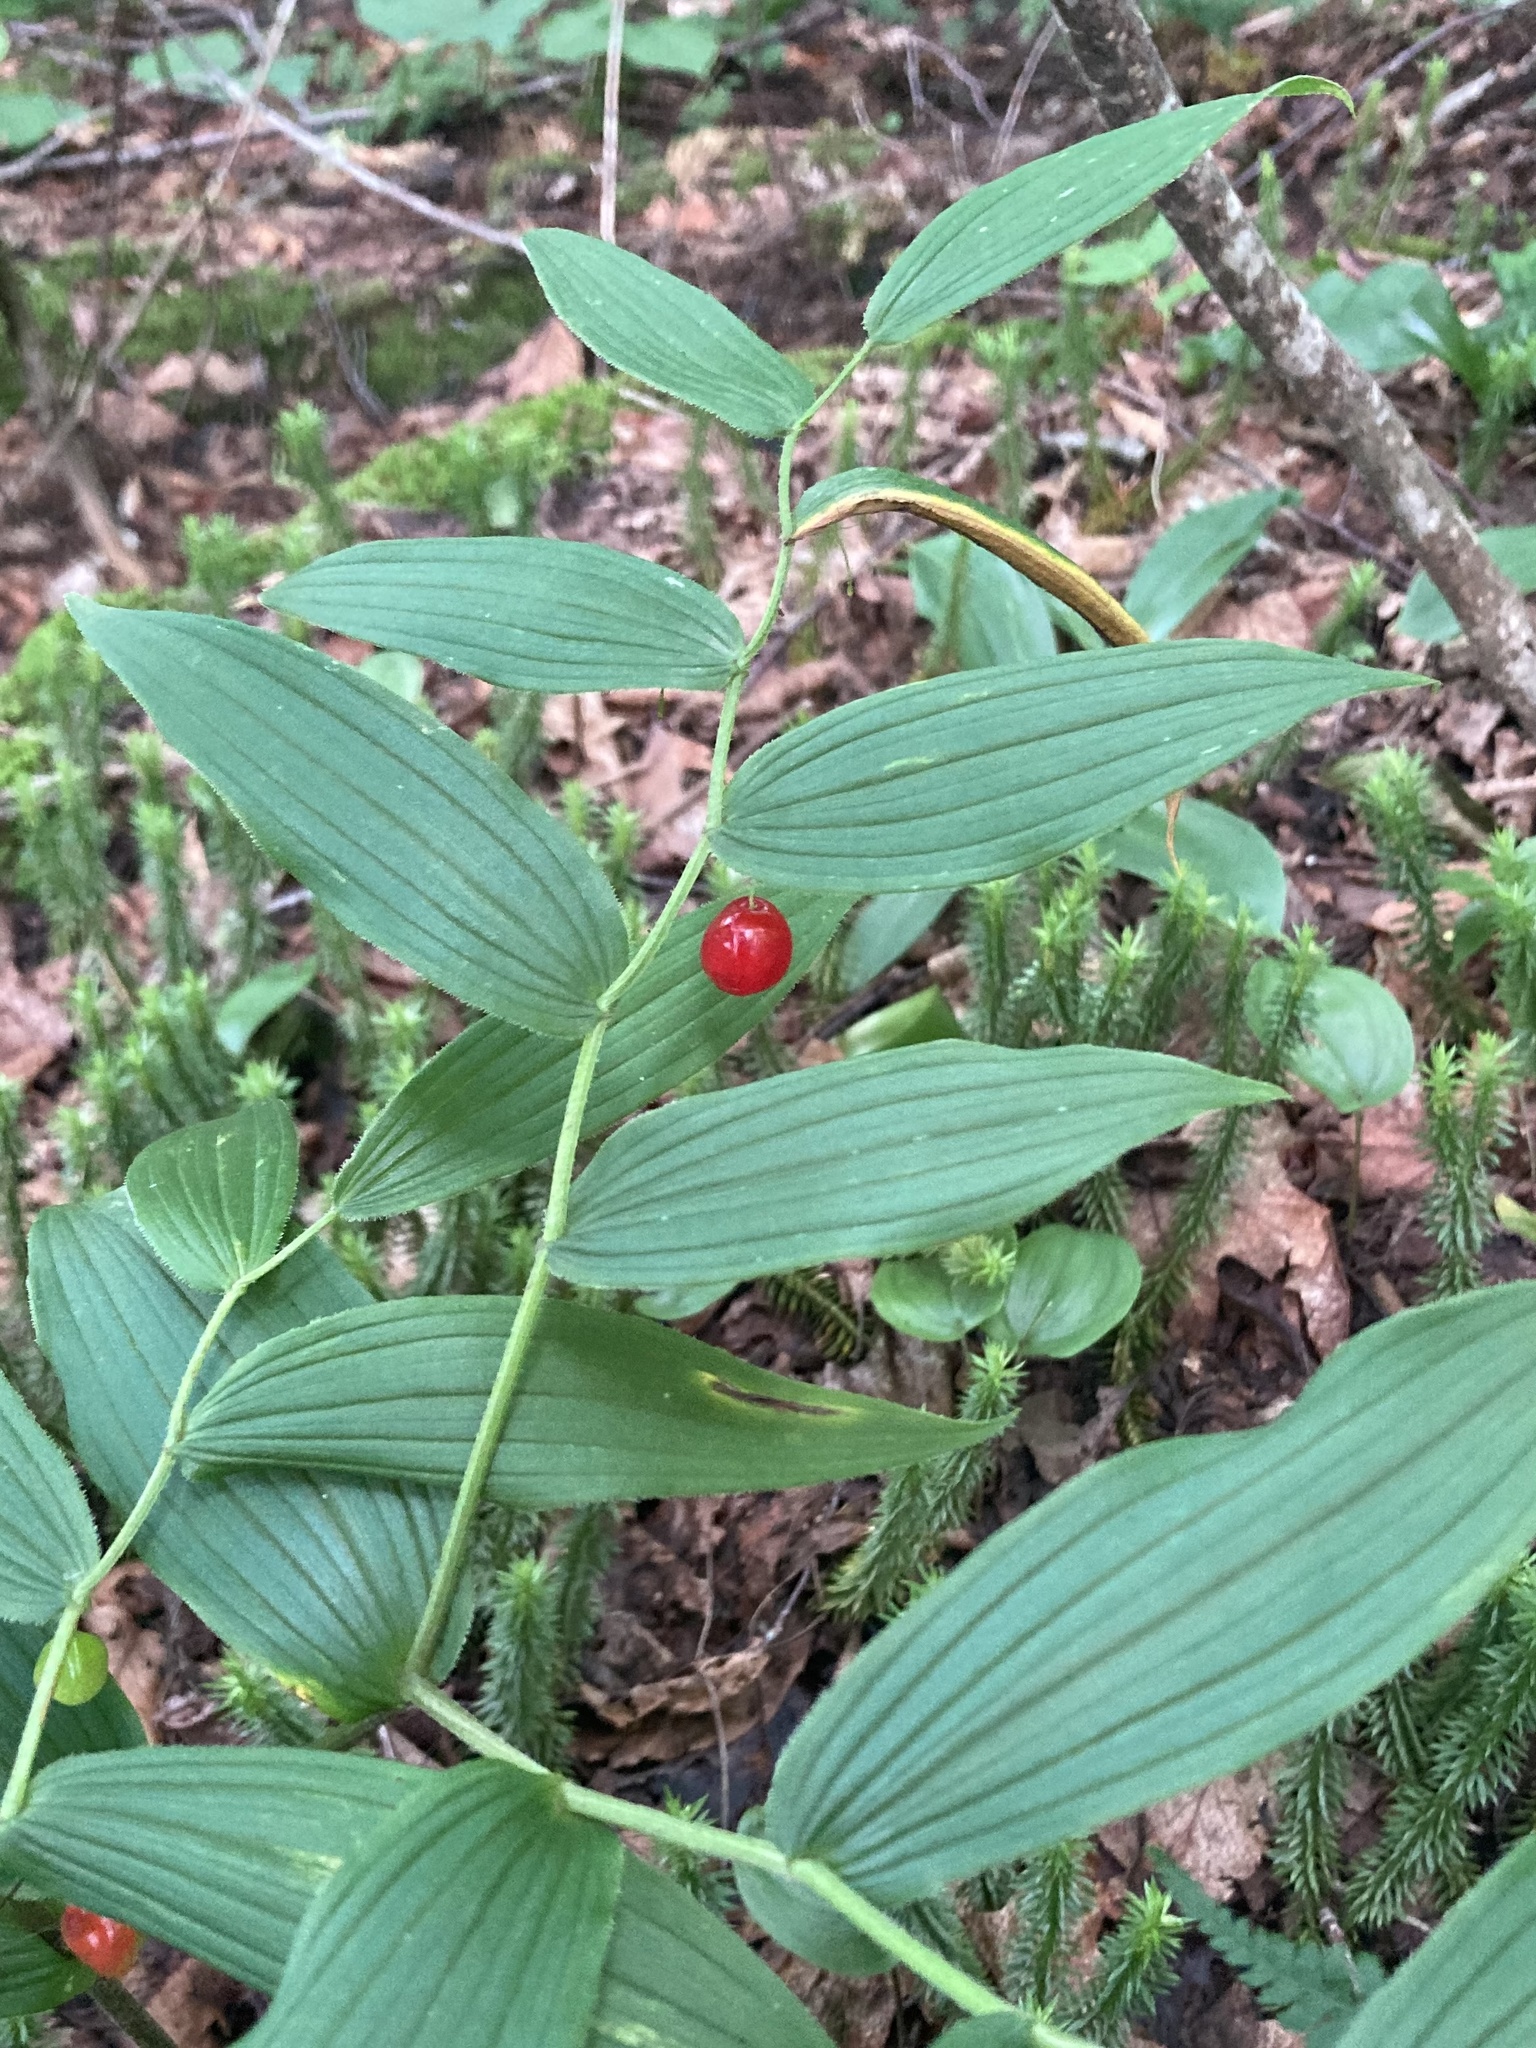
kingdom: Plantae
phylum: Tracheophyta
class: Liliopsida
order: Liliales
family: Liliaceae
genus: Streptopus
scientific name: Streptopus lanceolatus
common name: Rose mandarin
